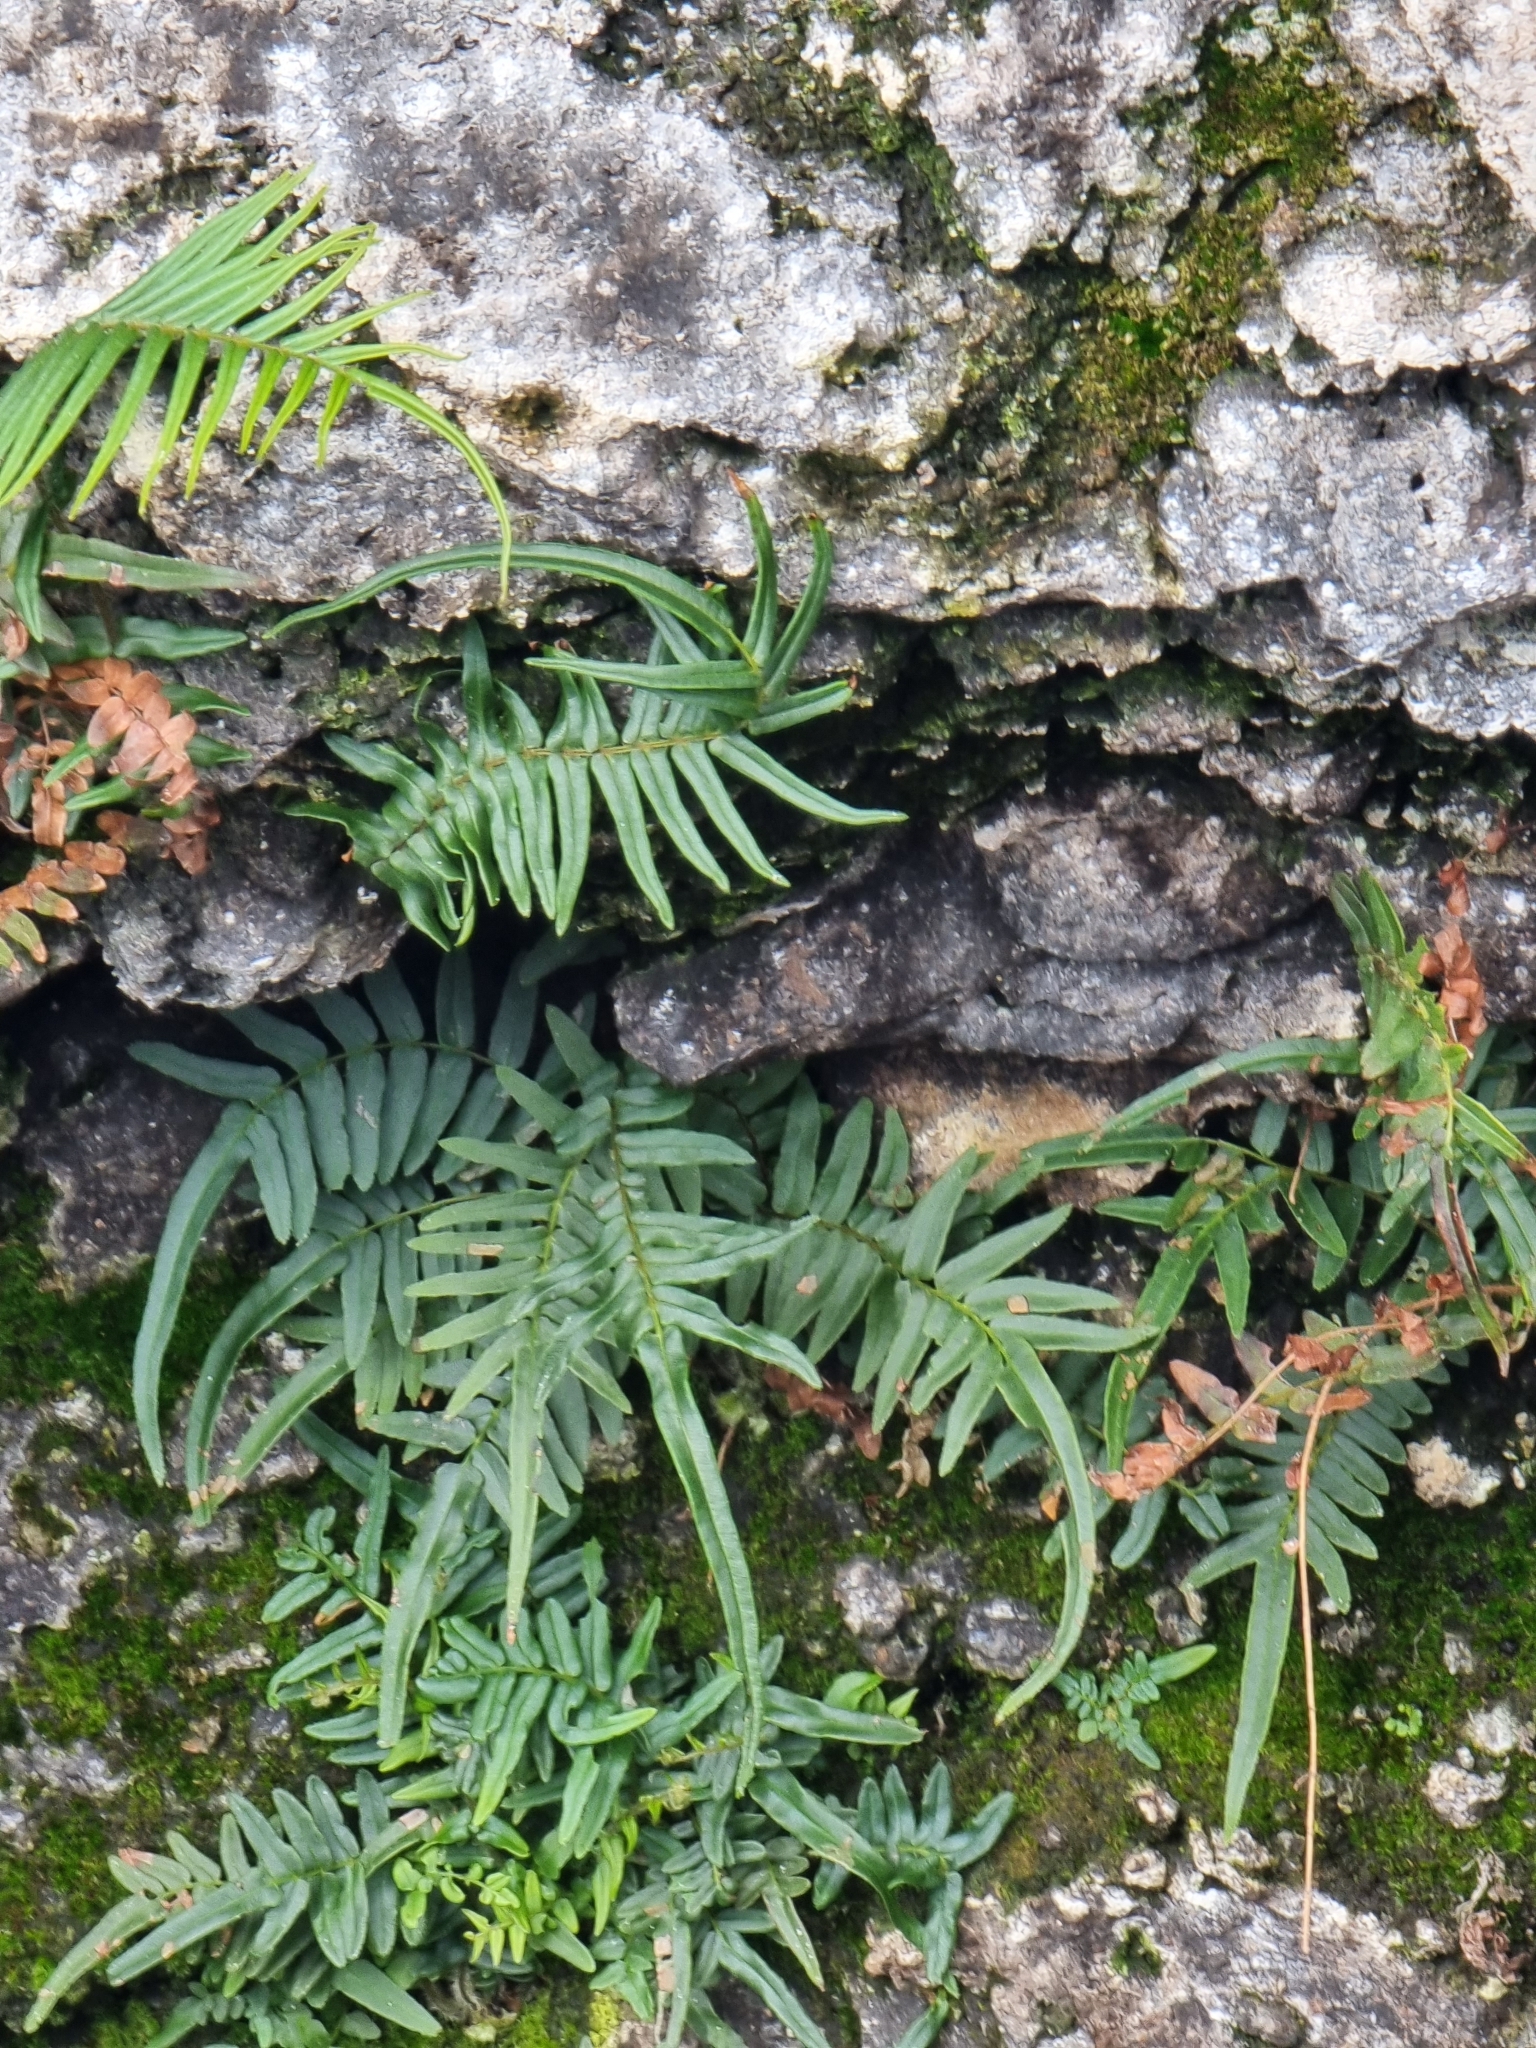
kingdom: Plantae
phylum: Tracheophyta
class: Polypodiopsida
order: Polypodiales
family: Pteridaceae
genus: Pteris
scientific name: Pteris vittata
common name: Ladder brake
